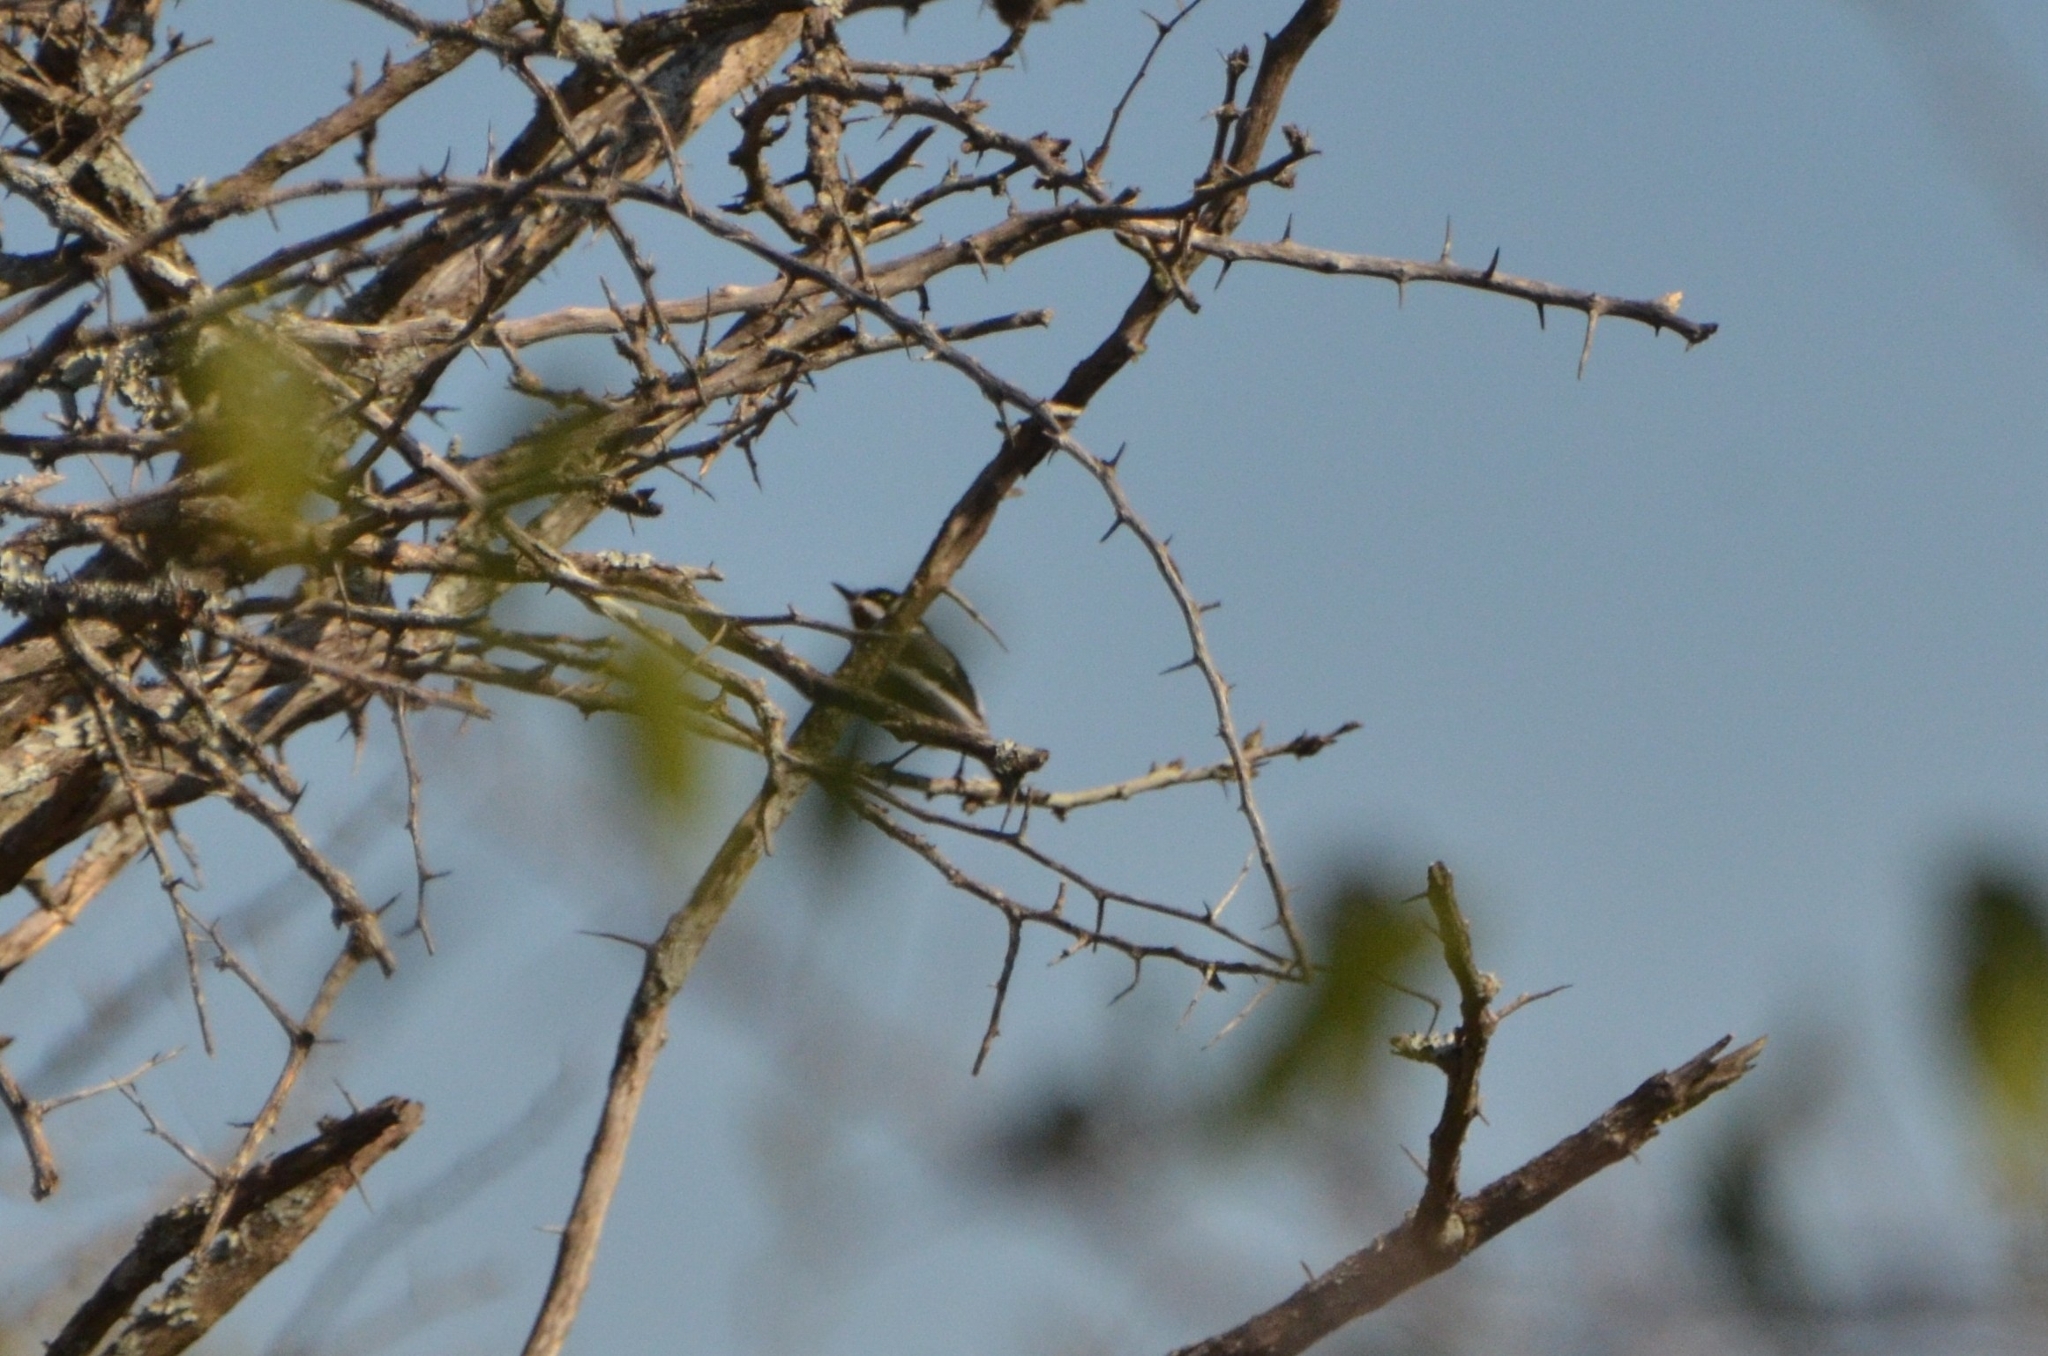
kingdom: Animalia
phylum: Chordata
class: Aves
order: Passeriformes
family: Platysteiridae
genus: Batis
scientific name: Batis molitor
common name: Chinspot batis
